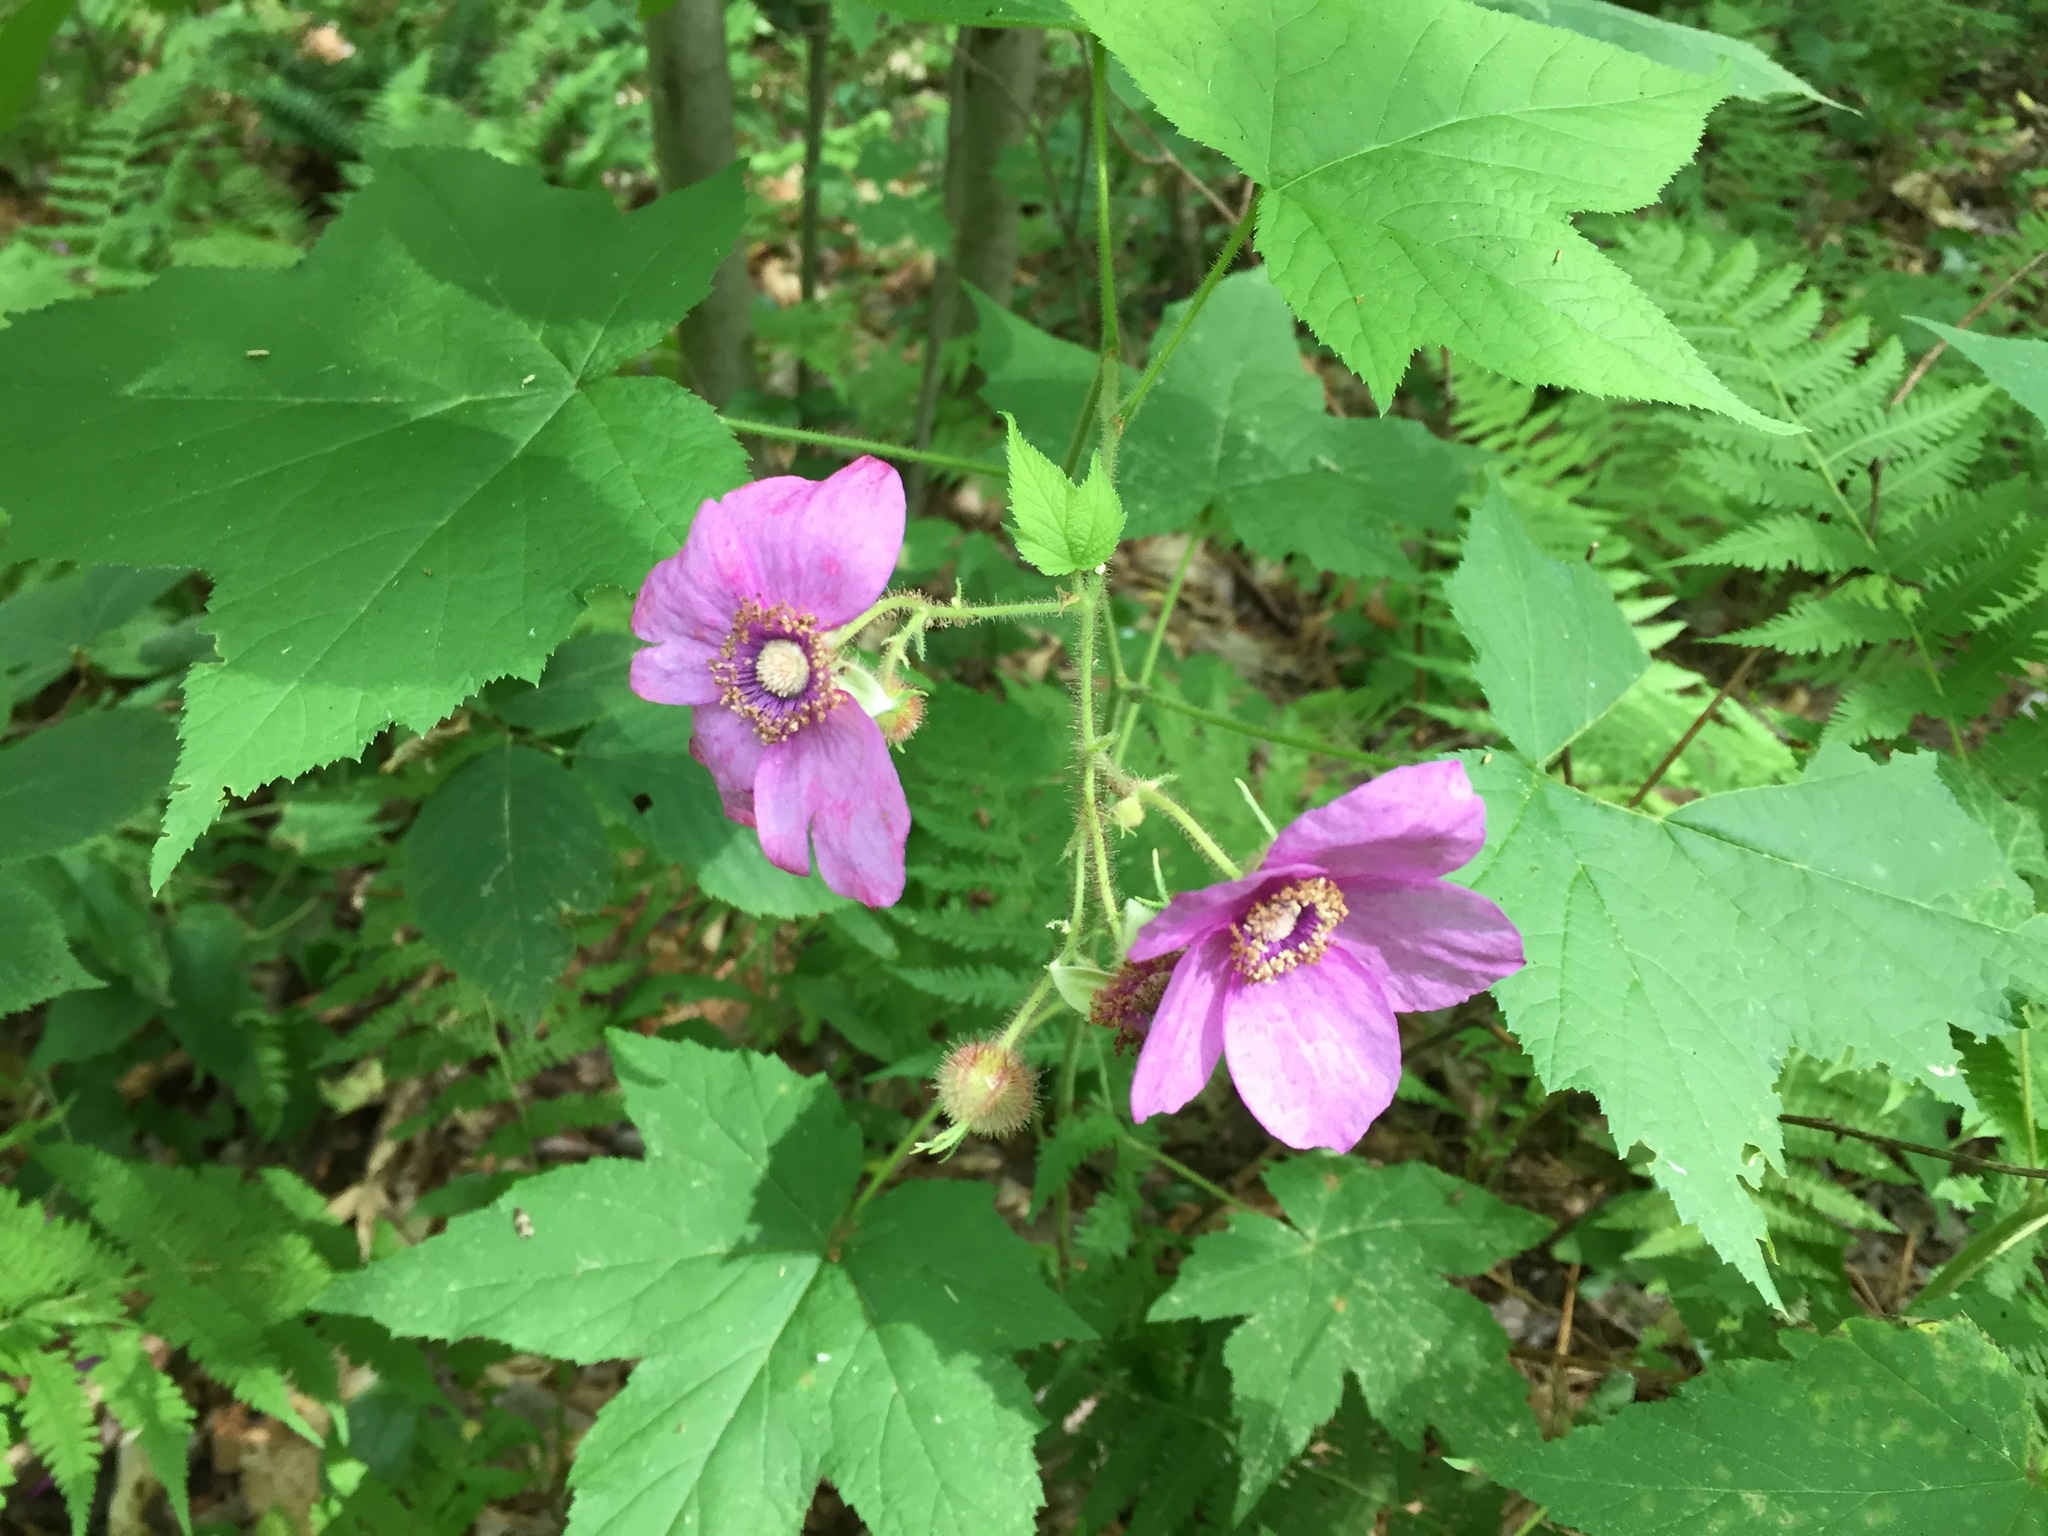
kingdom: Plantae
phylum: Tracheophyta
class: Magnoliopsida
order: Rosales
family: Rosaceae
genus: Rubus
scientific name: Rubus odoratus
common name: Purple-flowered raspberry
